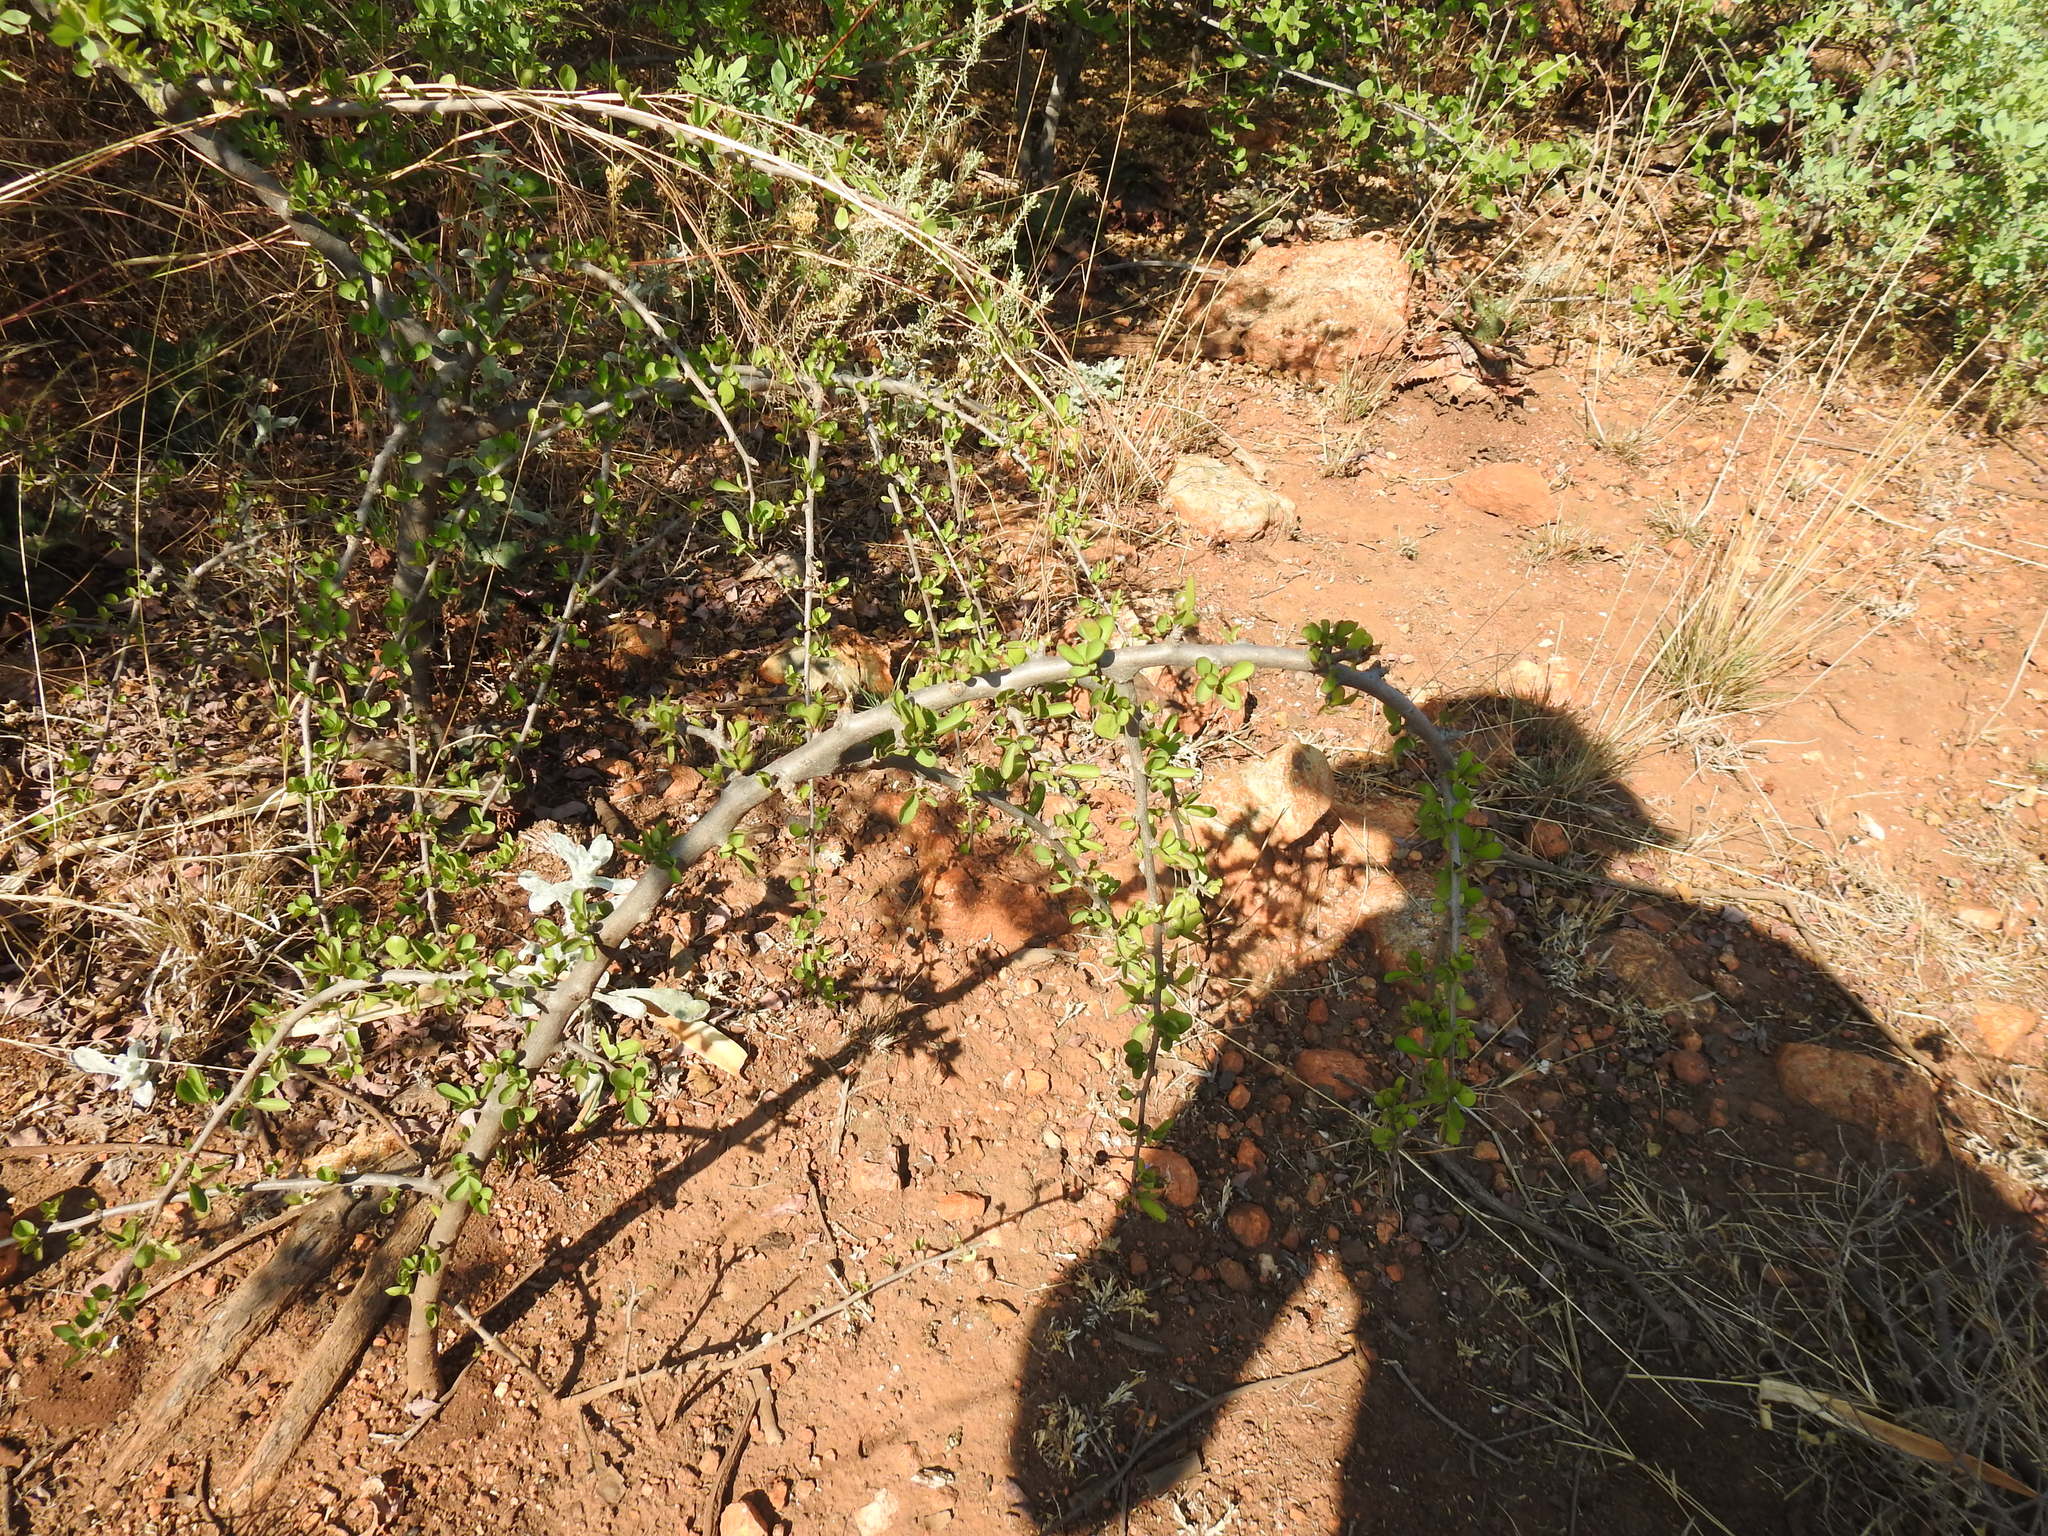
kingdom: Plantae
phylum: Tracheophyta
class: Magnoliopsida
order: Boraginales
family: Ehretiaceae
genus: Ehretia
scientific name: Ehretia rigida
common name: Cape lilac
